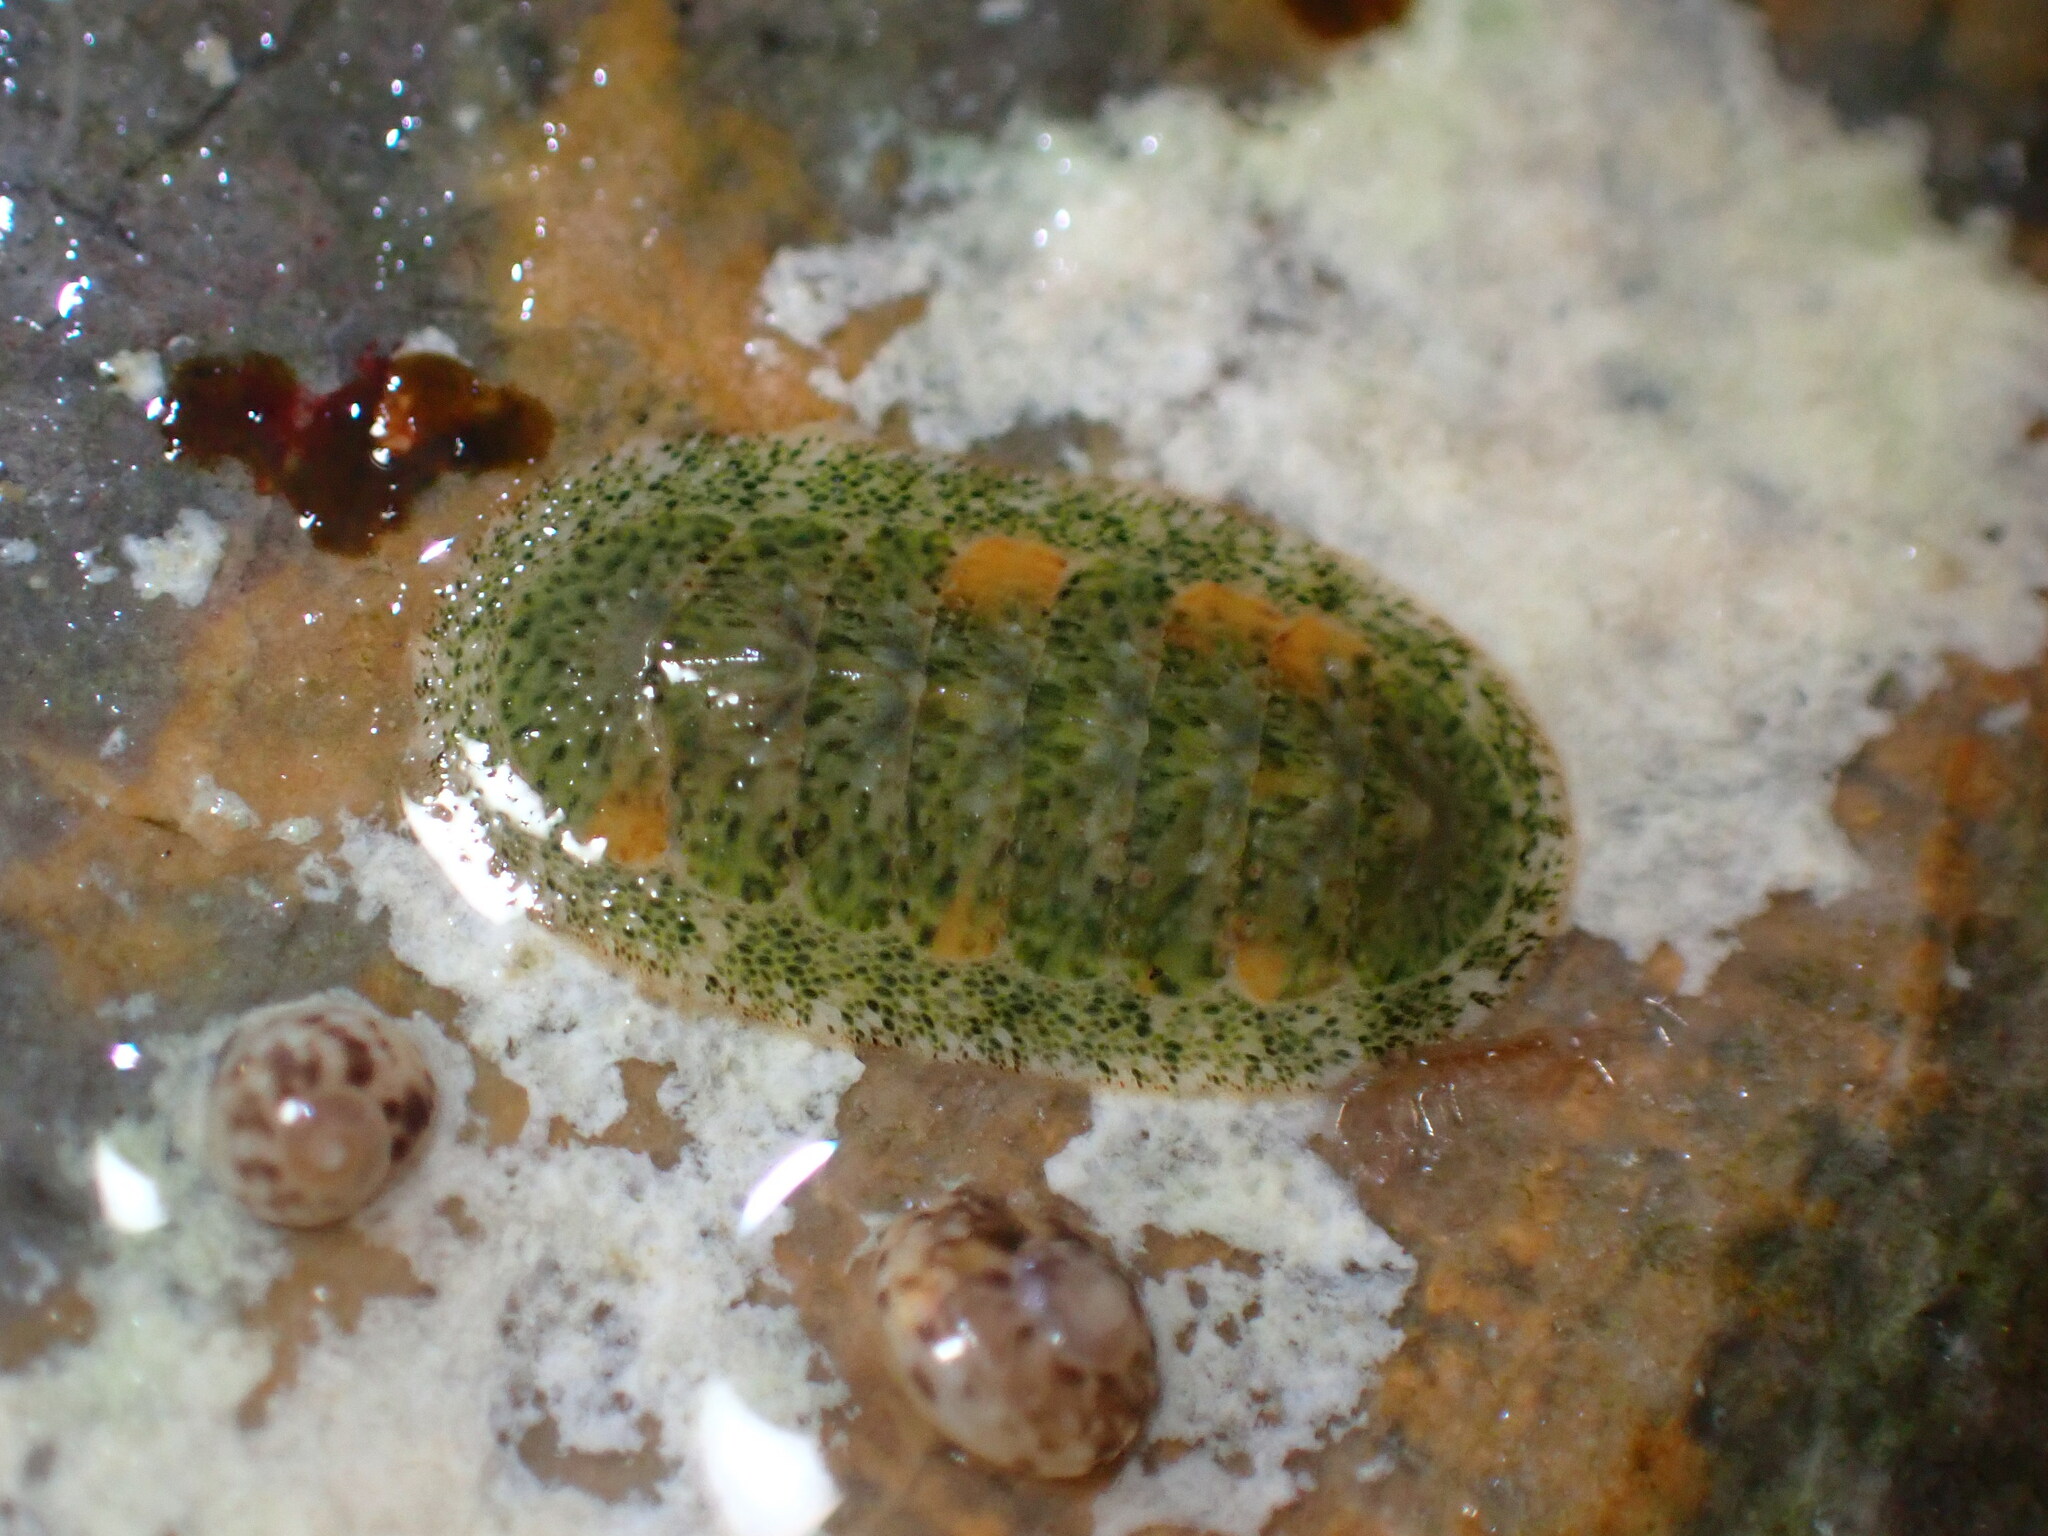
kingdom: Animalia
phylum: Mollusca
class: Polyplacophora
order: Chitonida
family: Ischnochitonidae
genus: Lepidozona
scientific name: Lepidozona pectinulata
